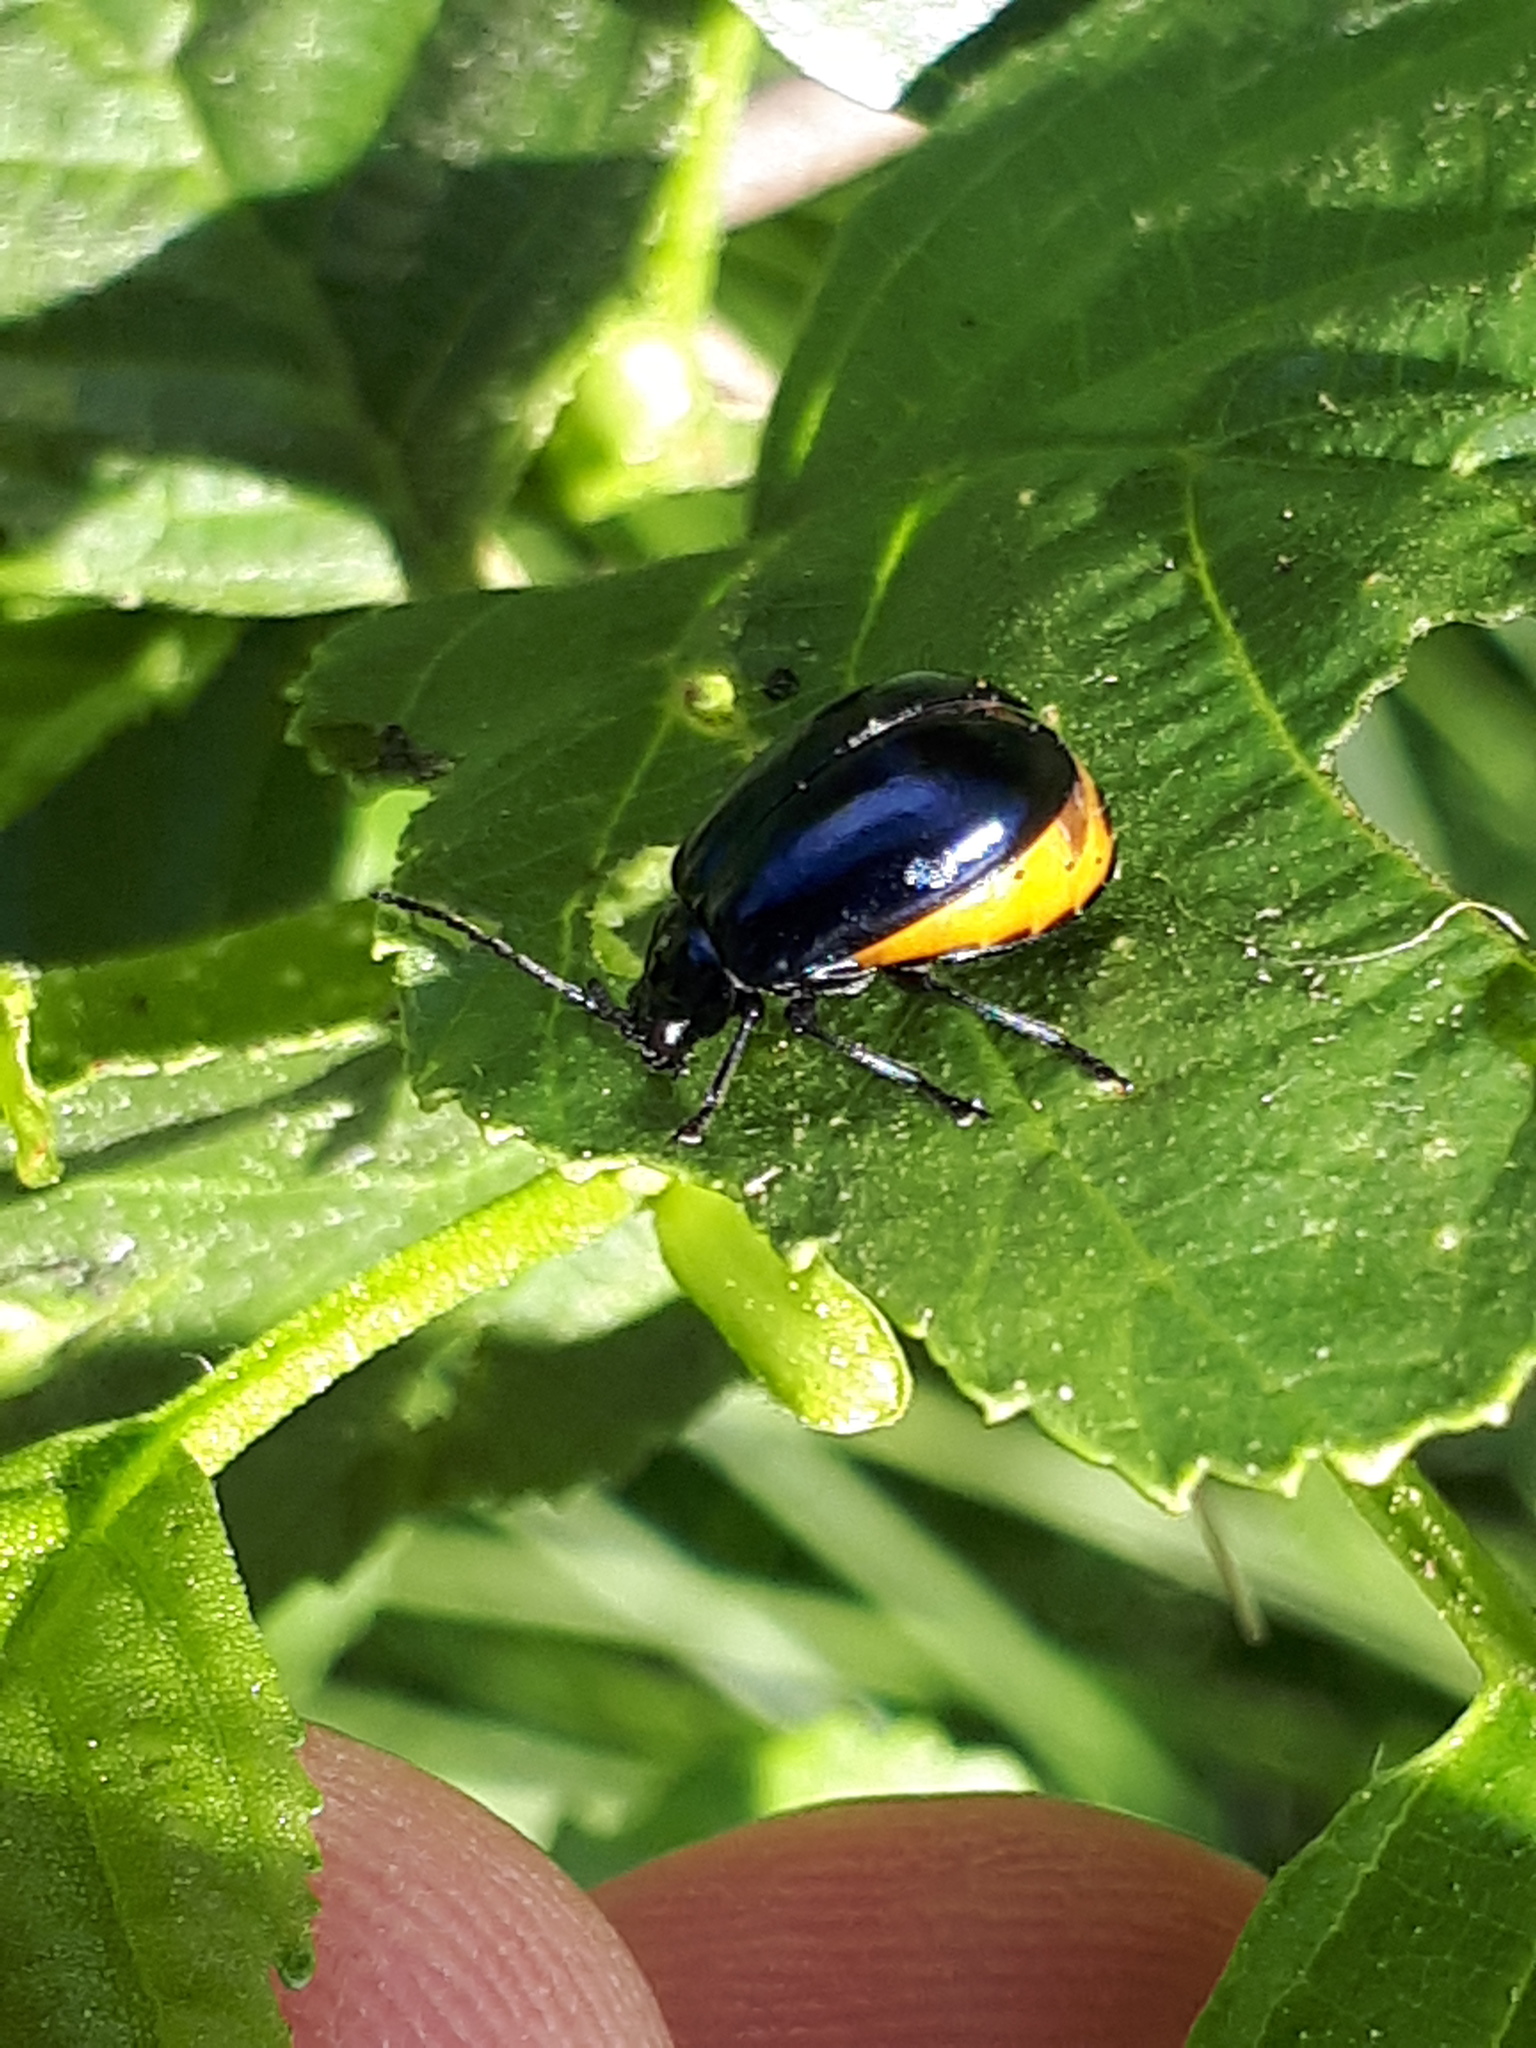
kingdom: Animalia
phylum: Arthropoda
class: Insecta
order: Coleoptera
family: Chrysomelidae
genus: Agelastica
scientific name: Agelastica alni
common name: Alder leaf beetle
